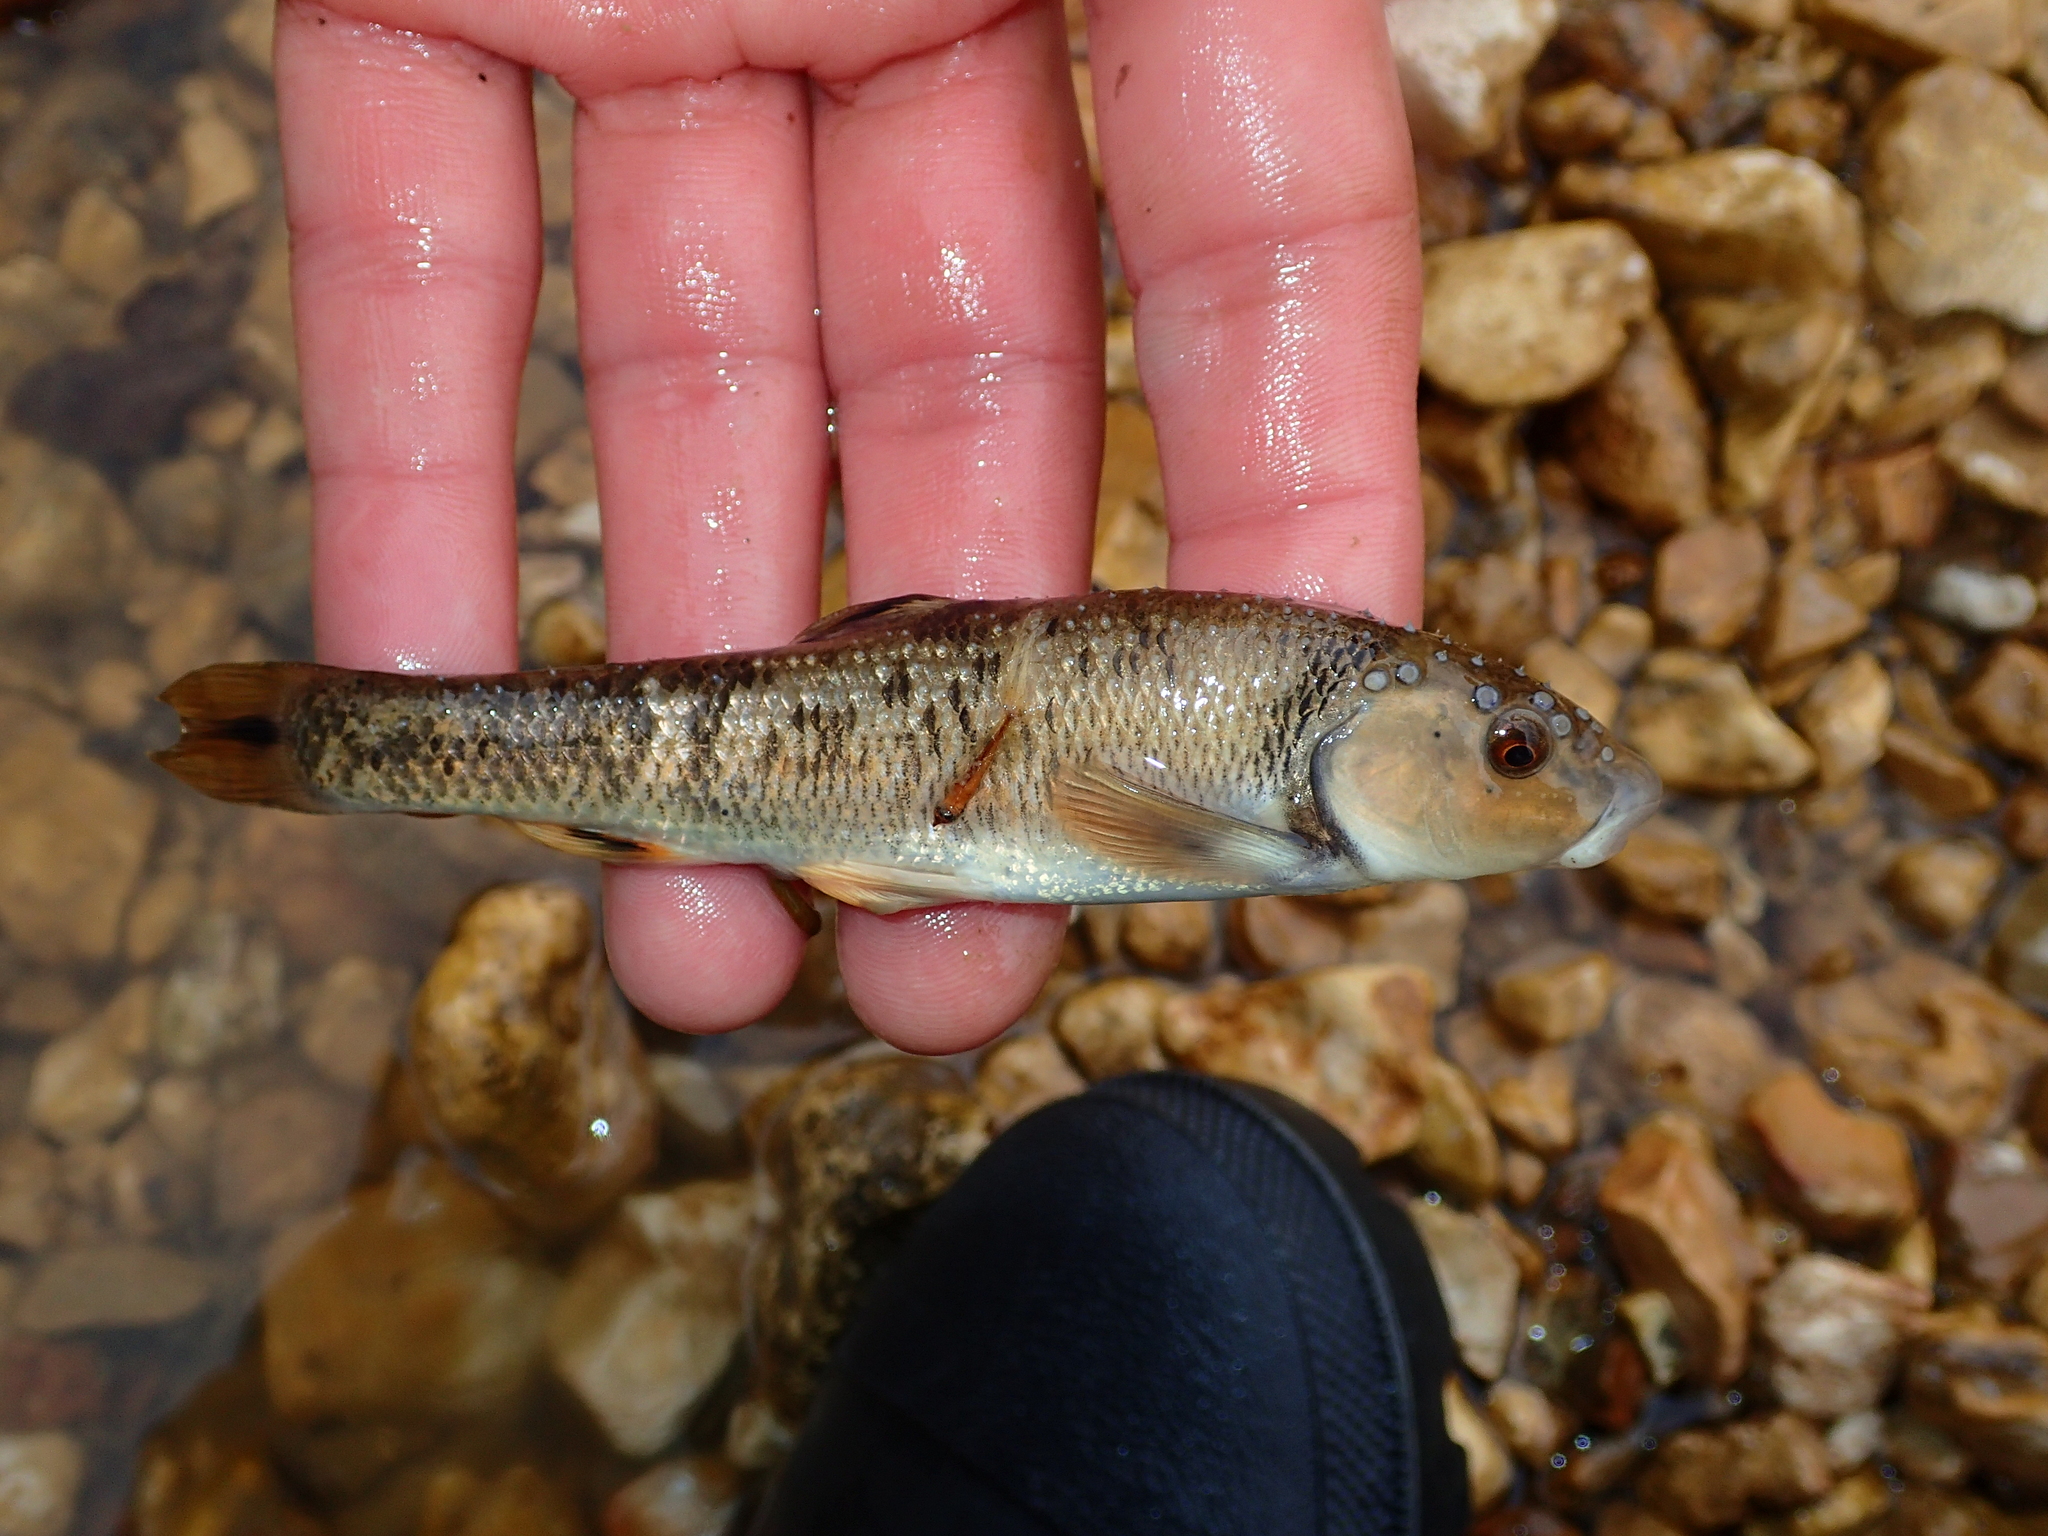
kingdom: Animalia
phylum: Chordata
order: Cypriniformes
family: Cyprinidae
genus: Campostoma
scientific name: Campostoma anomalum
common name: Central stoneroller
